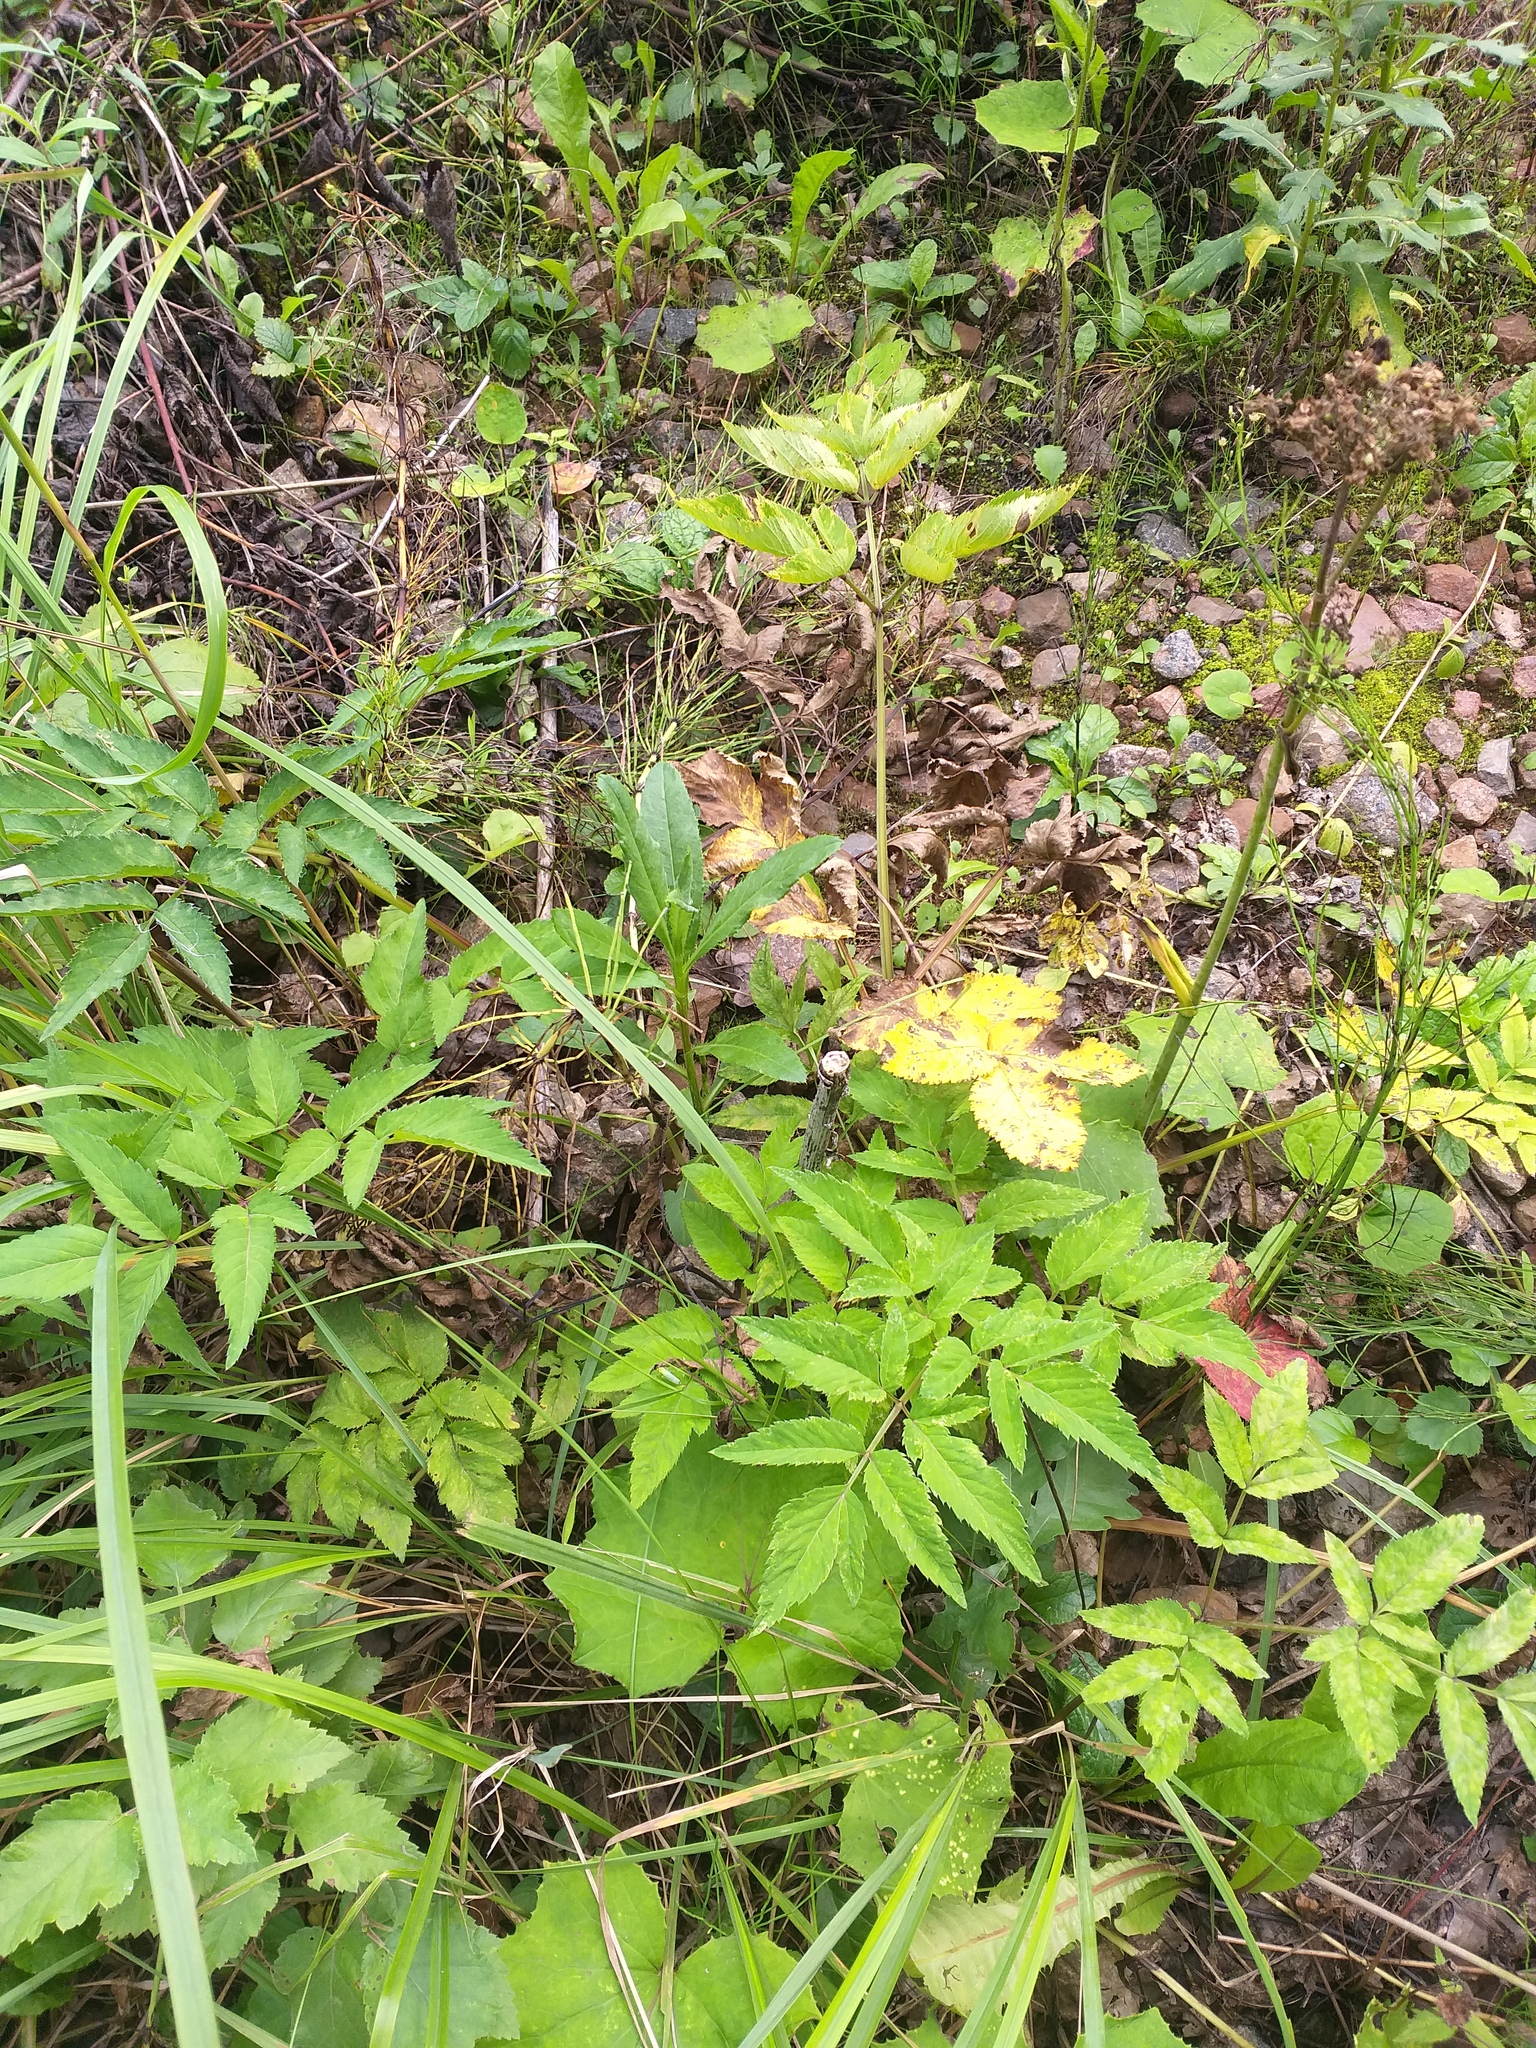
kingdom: Plantae
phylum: Tracheophyta
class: Magnoliopsida
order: Apiales
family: Apiaceae
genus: Angelica
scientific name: Angelica sylvestris
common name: Wild angelica
